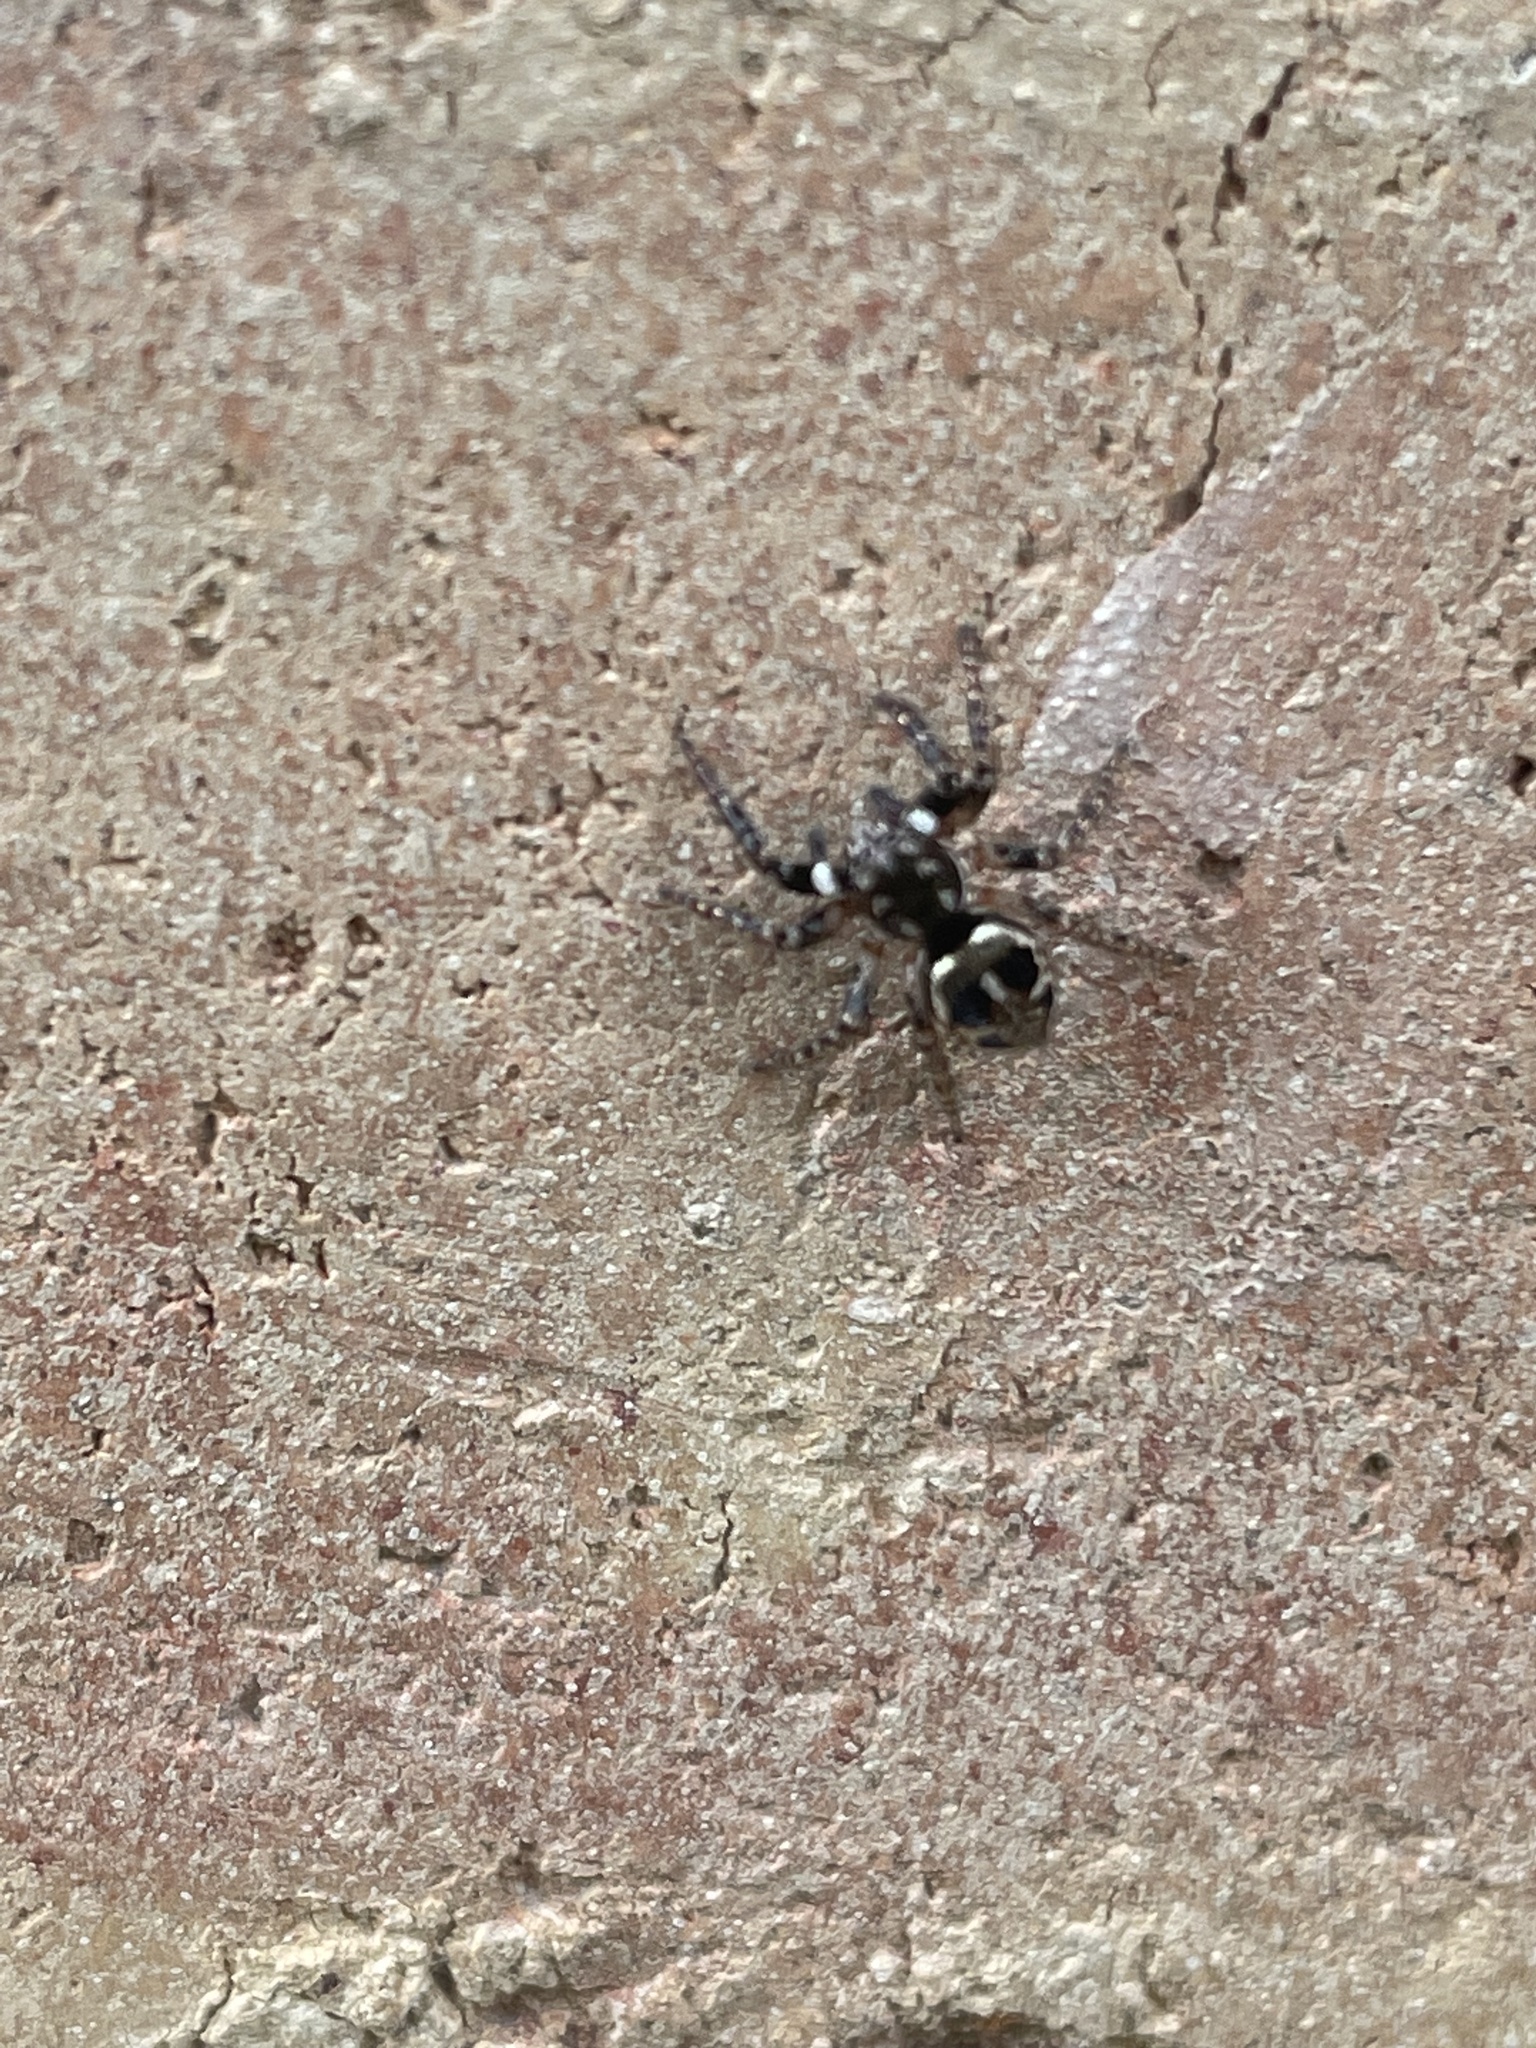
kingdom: Animalia
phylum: Arthropoda
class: Arachnida
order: Araneae
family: Salticidae
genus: Anasaitis
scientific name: Anasaitis canosa
